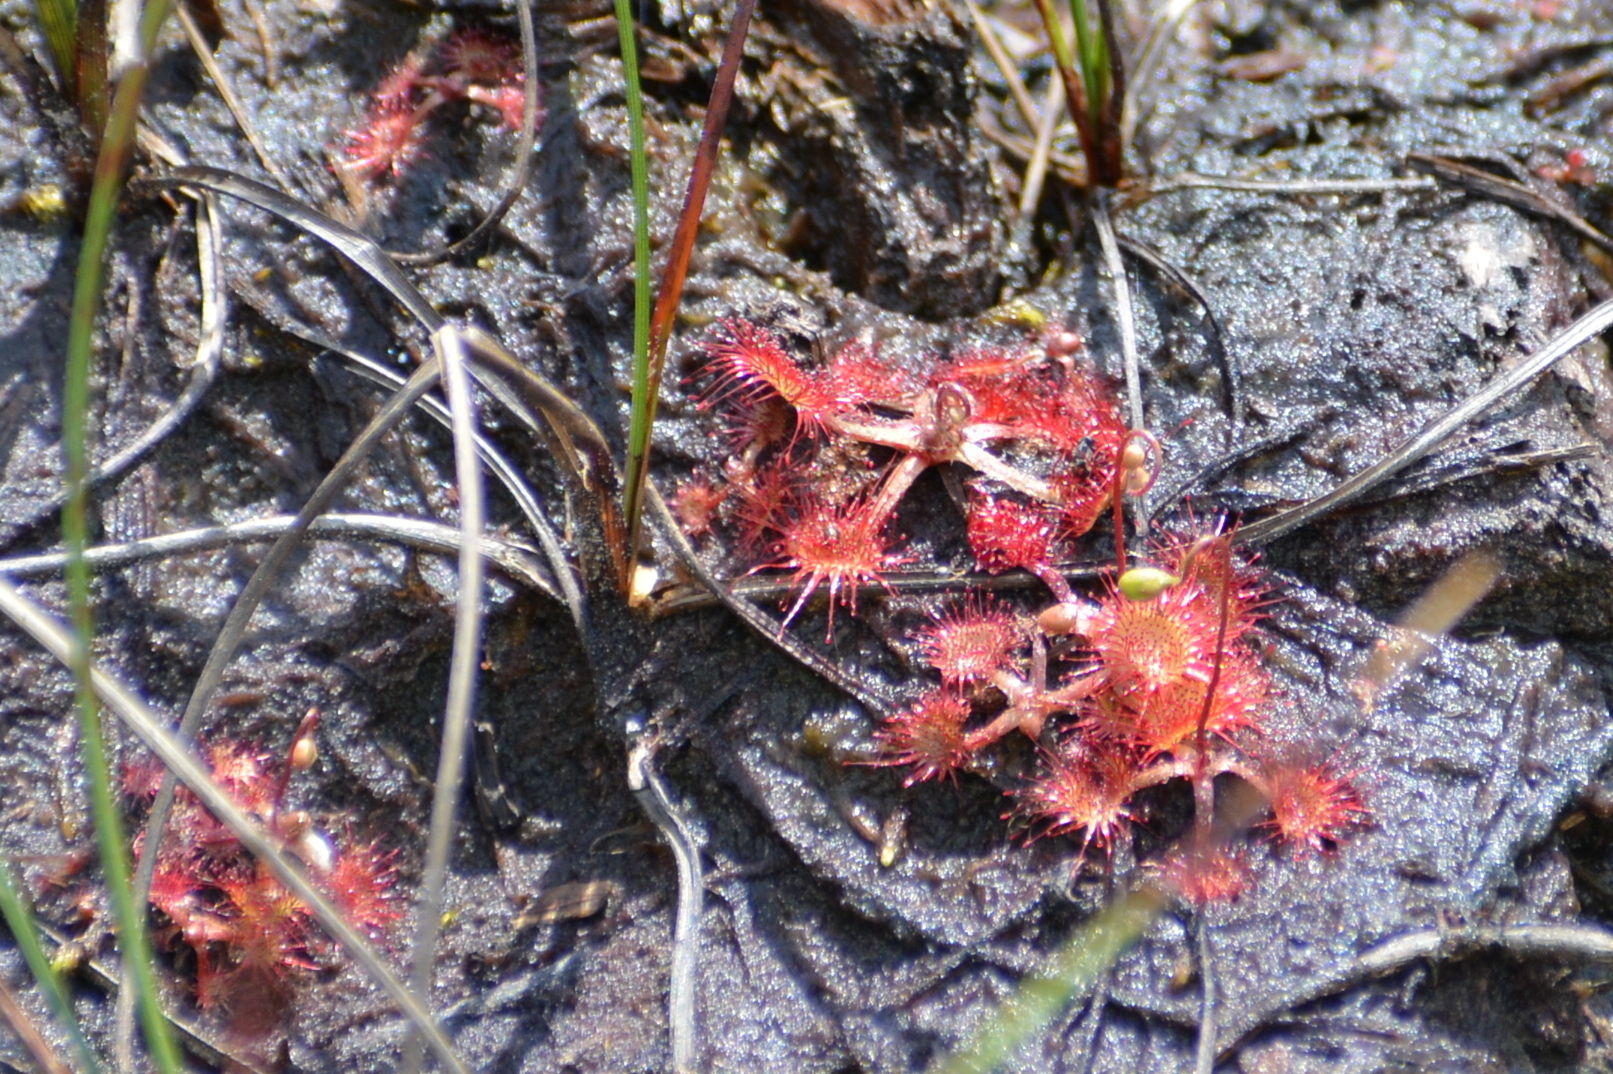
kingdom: Plantae
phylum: Tracheophyta
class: Magnoliopsida
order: Caryophyllales
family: Droseraceae
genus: Drosera
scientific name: Drosera rotundifolia
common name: Round-leaved sundew
